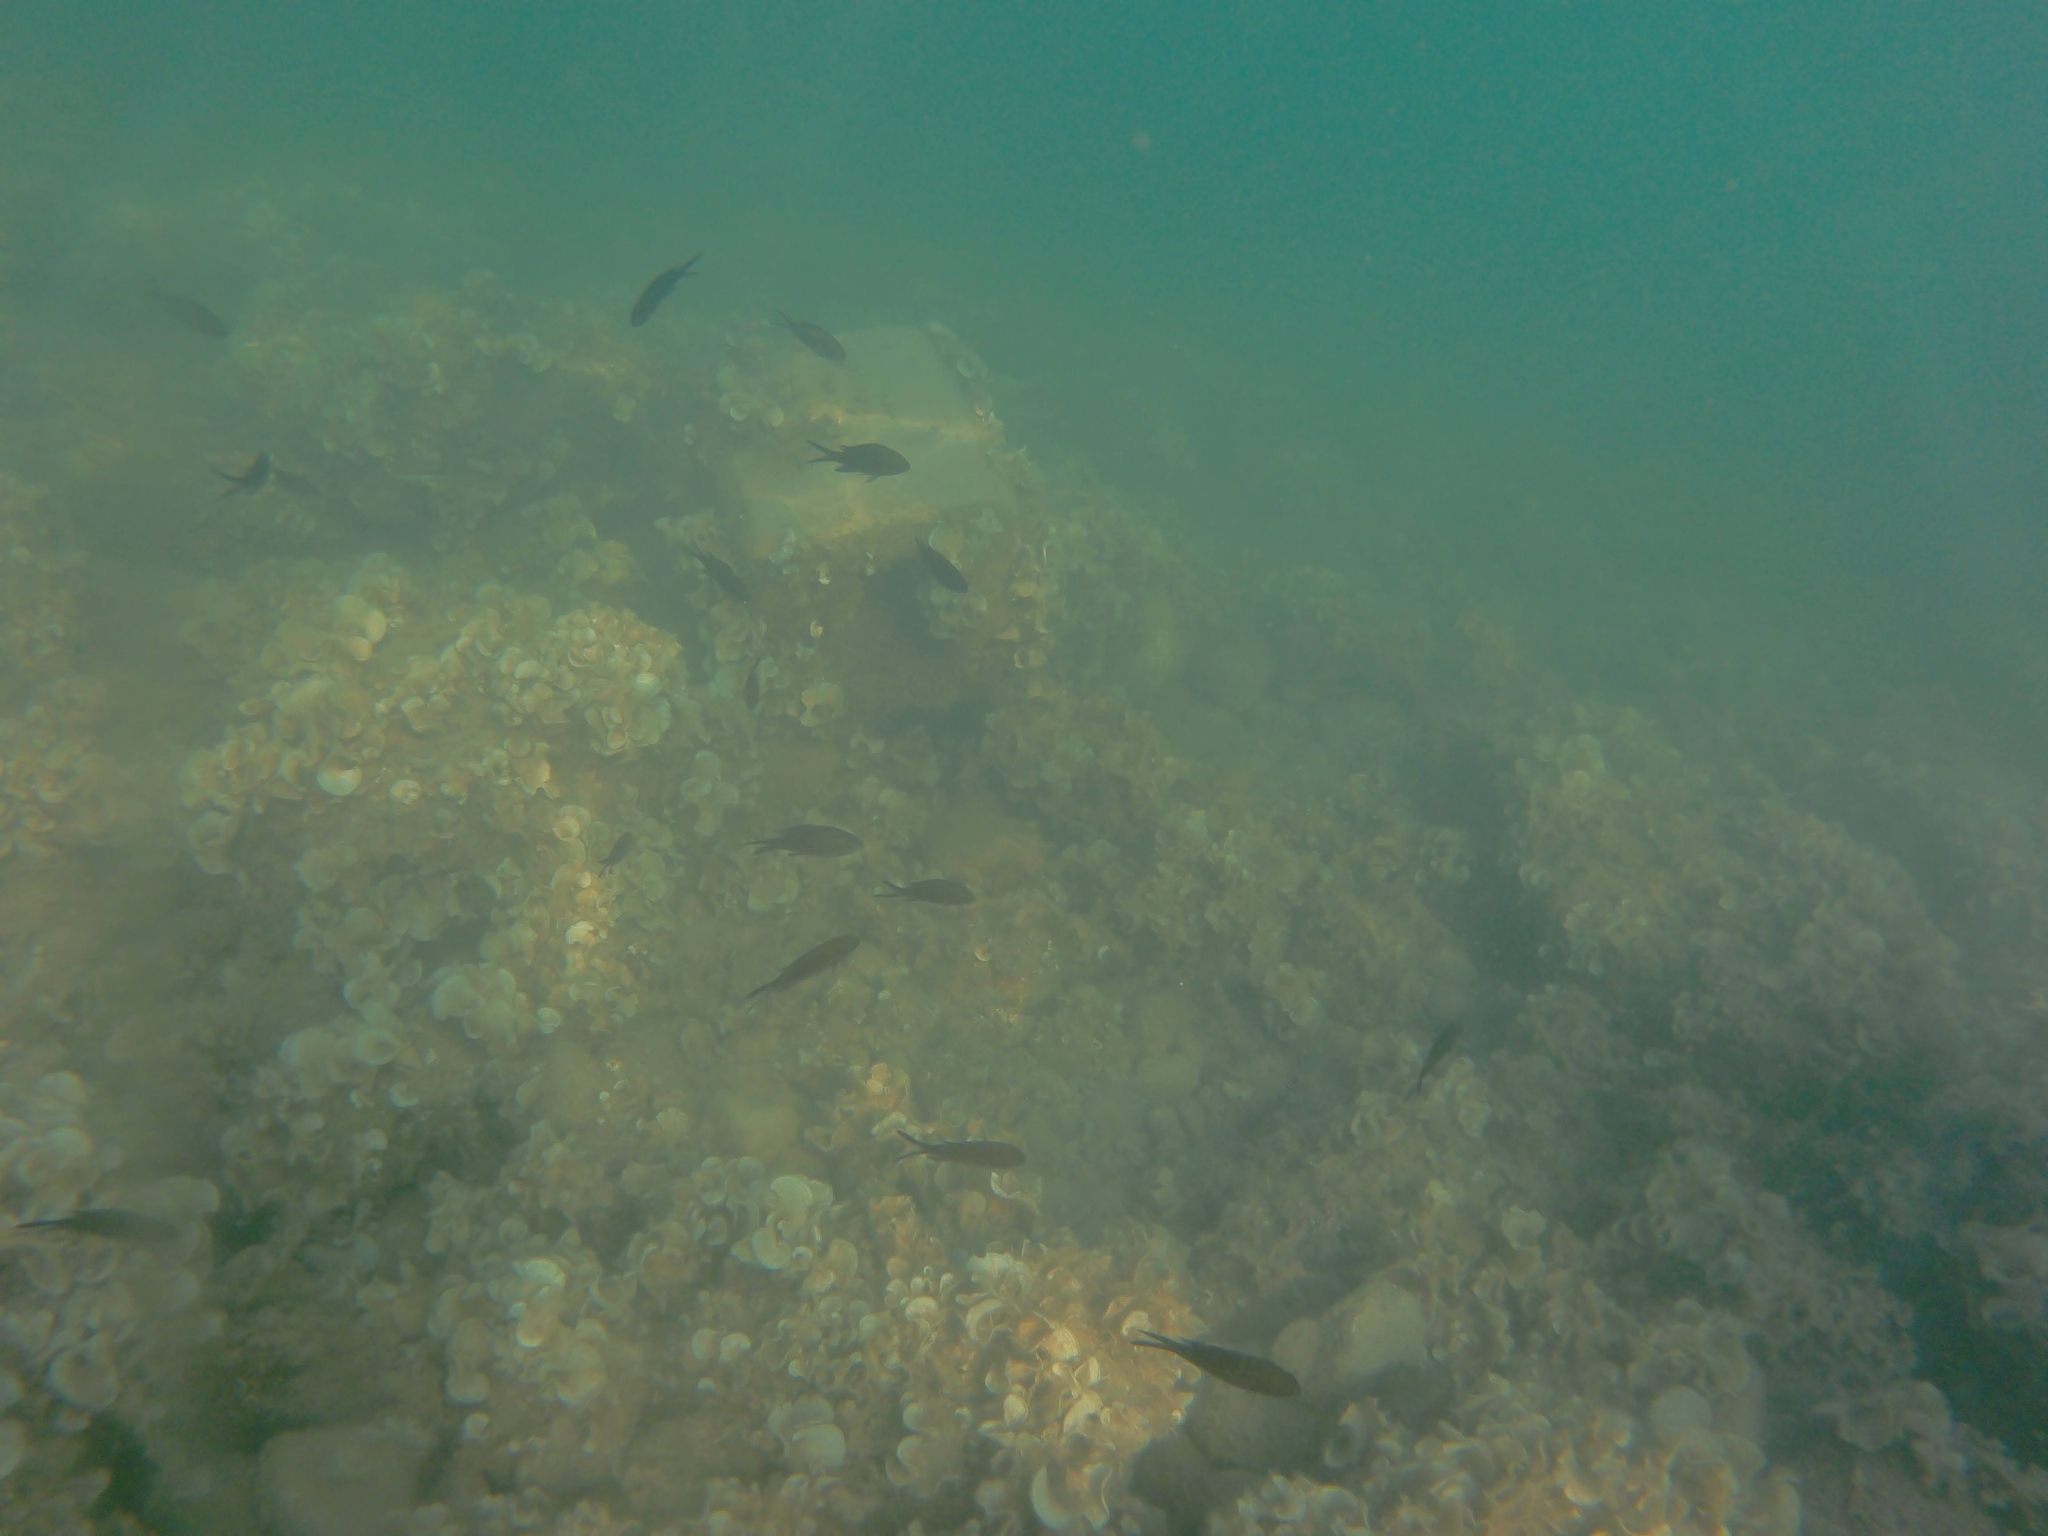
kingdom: Animalia
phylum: Chordata
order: Perciformes
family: Pomacentridae
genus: Chromis
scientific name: Chromis chromis
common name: Damselfish
